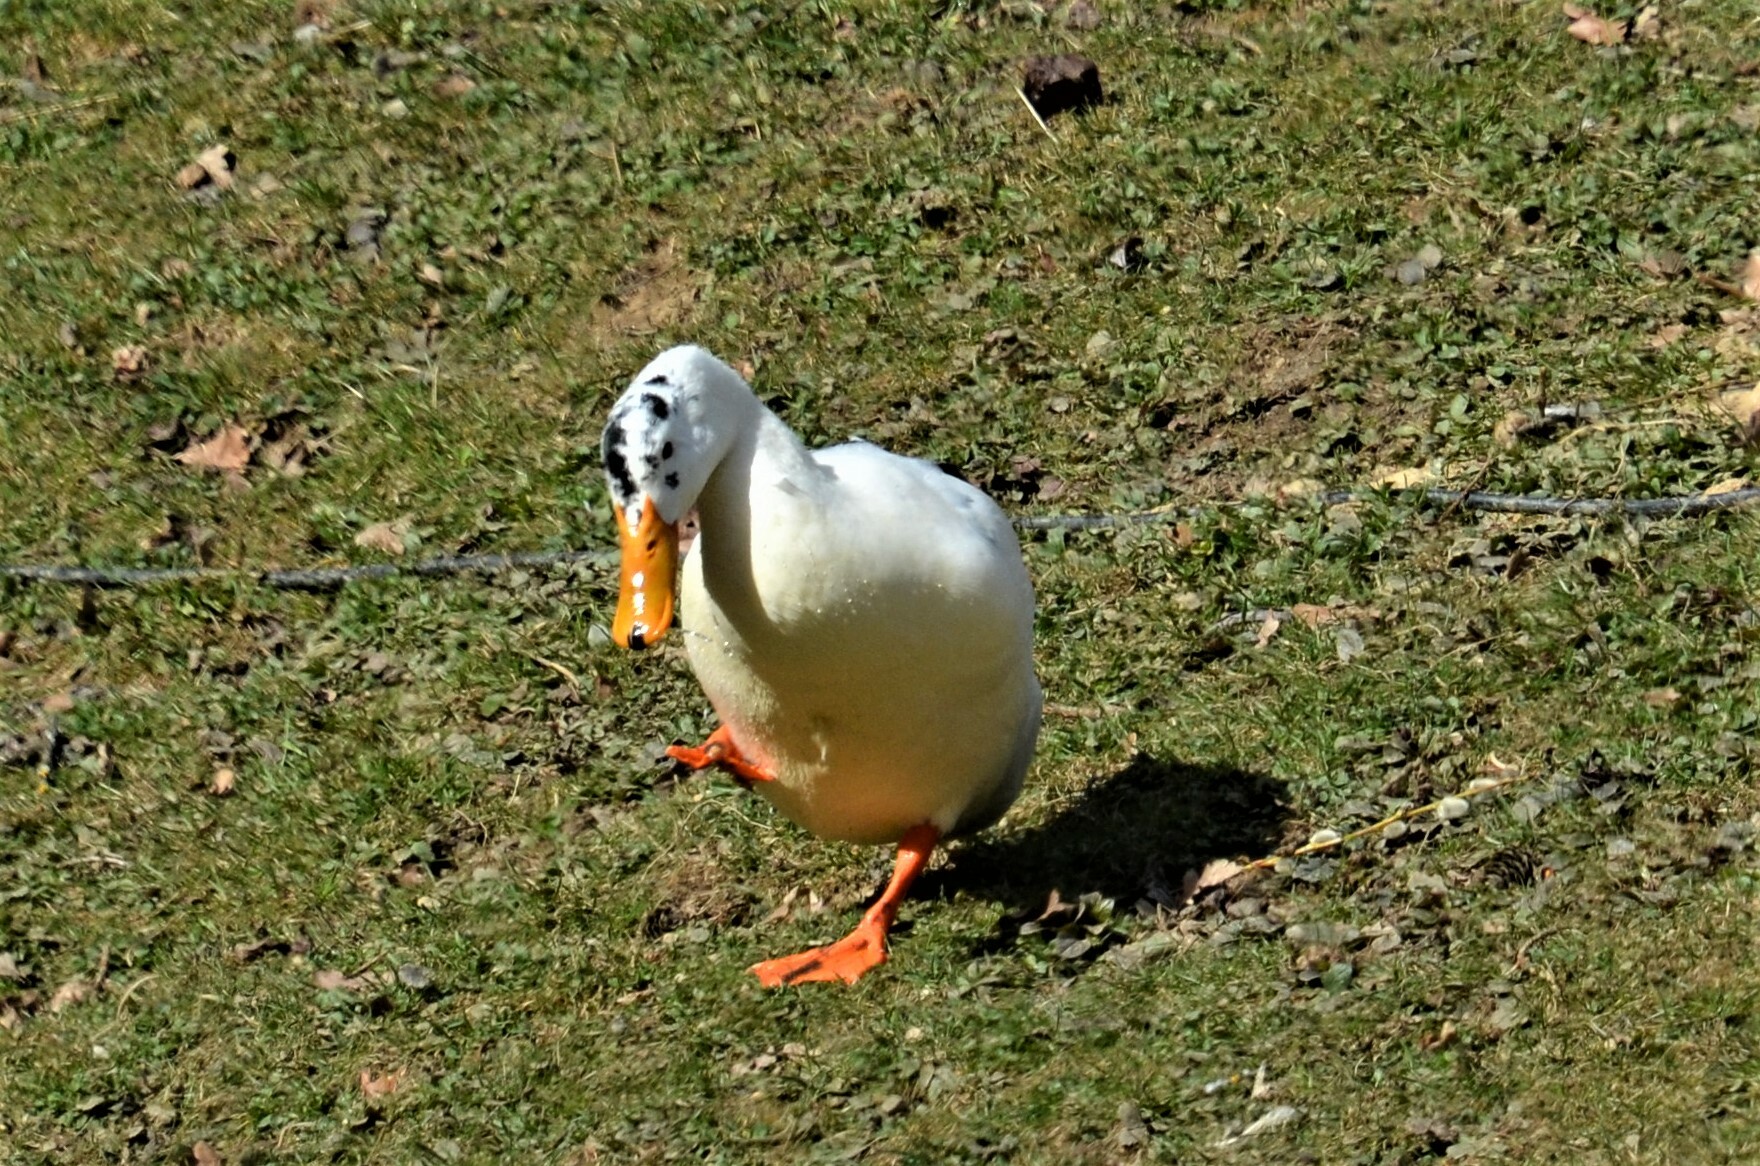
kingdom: Animalia
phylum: Chordata
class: Aves
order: Anseriformes
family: Anatidae
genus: Anas
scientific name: Anas platyrhynchos
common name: Mallard
